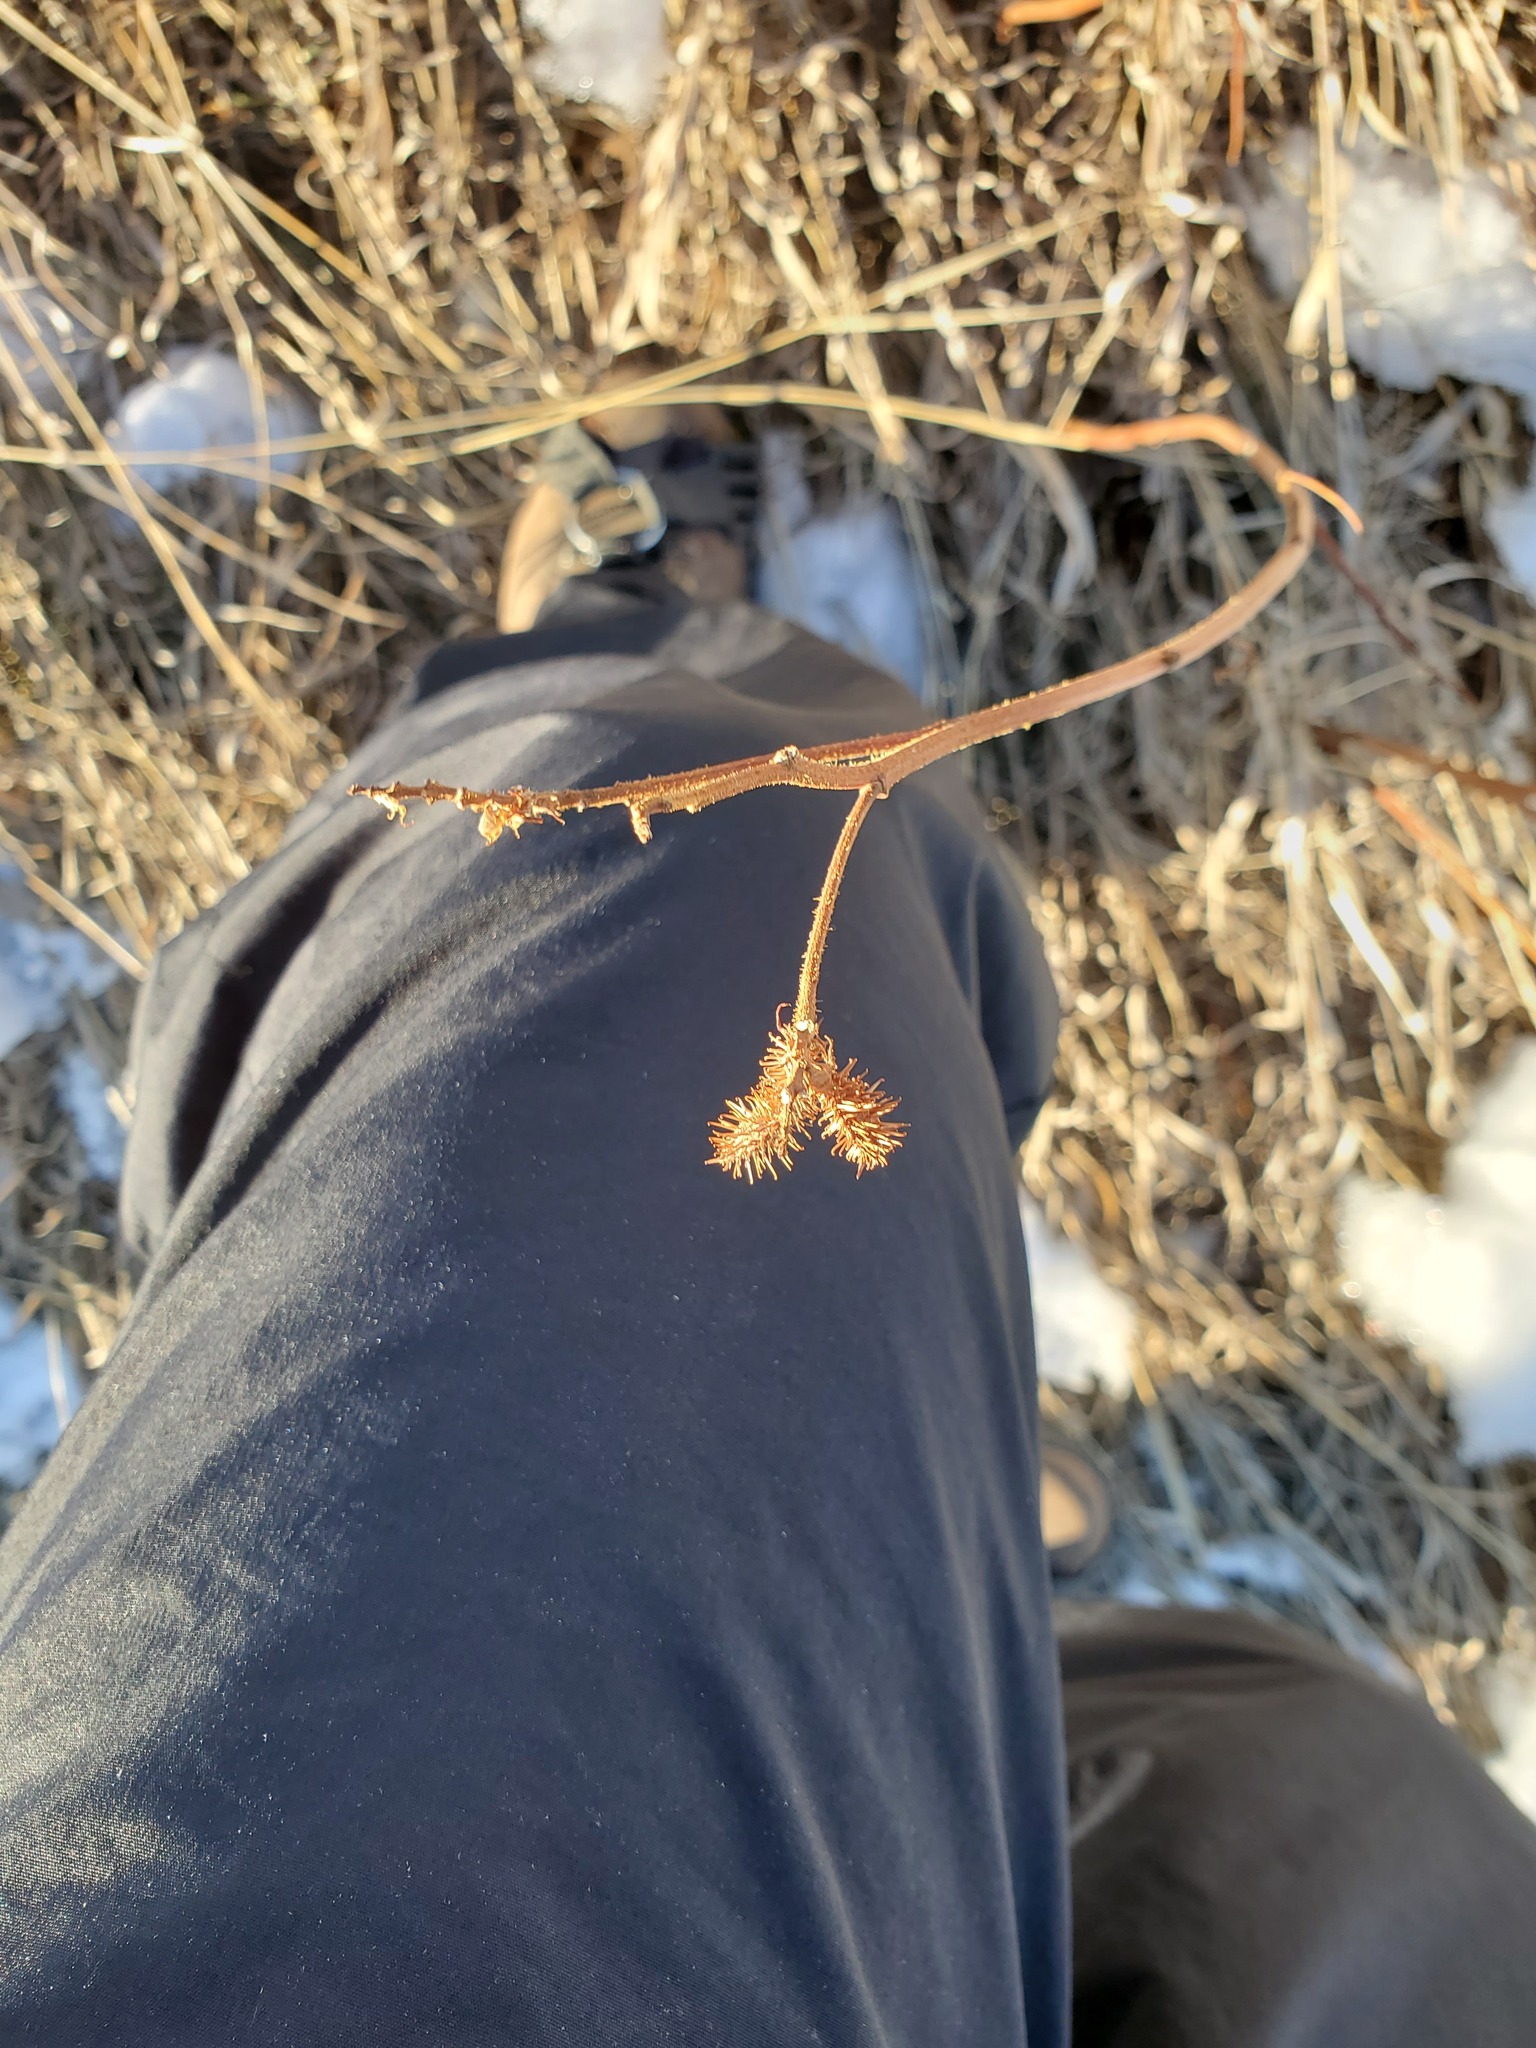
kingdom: Plantae
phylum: Tracheophyta
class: Magnoliopsida
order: Fabales
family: Fabaceae
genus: Glycyrrhiza
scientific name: Glycyrrhiza lepidota
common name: American liquorice
